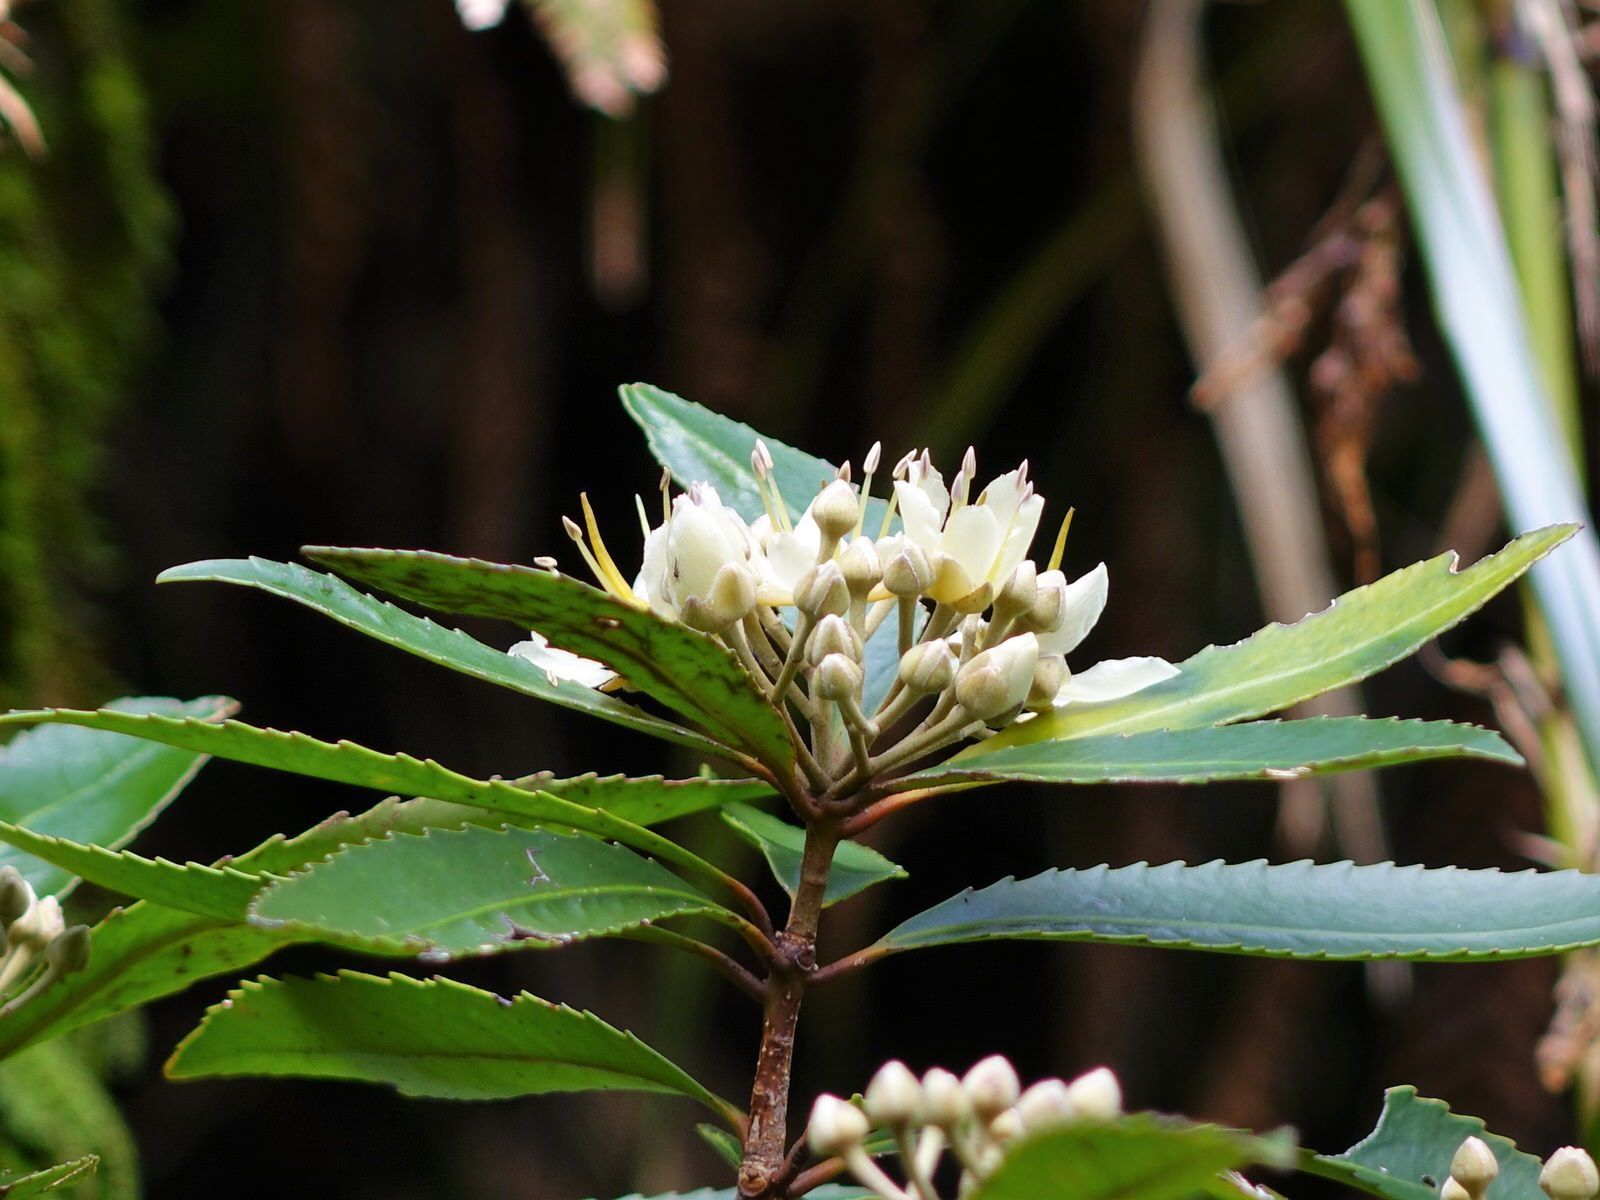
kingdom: Plantae
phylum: Tracheophyta
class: Magnoliopsida
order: Crossosomatales
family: Ixerbaceae
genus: Ixerba
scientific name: Ixerba brexioides
